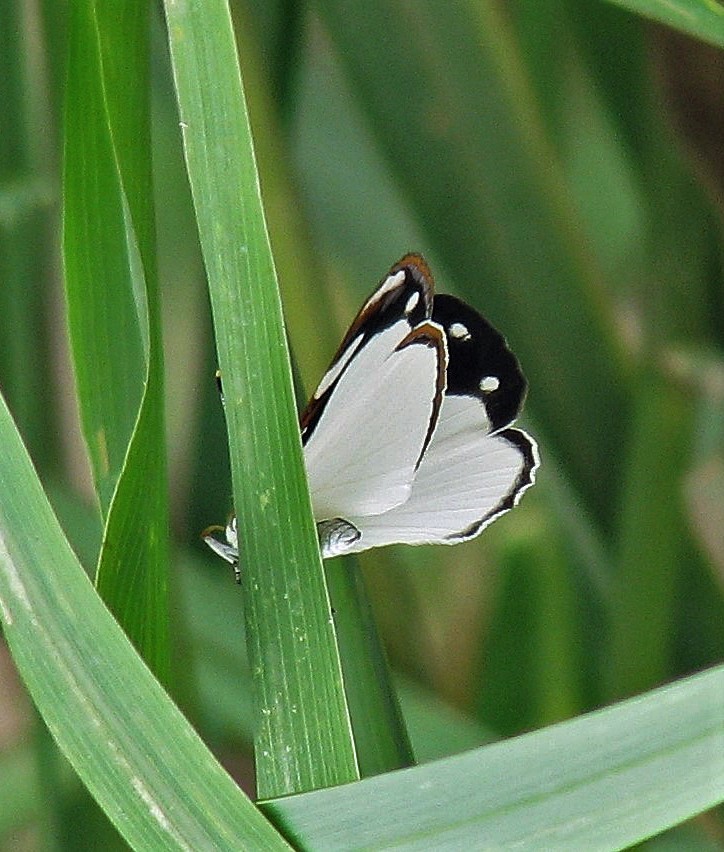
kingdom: Animalia
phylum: Arthropoda
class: Insecta
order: Lepidoptera
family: Nymphalidae
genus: Dynamine
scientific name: Dynamine coenus
